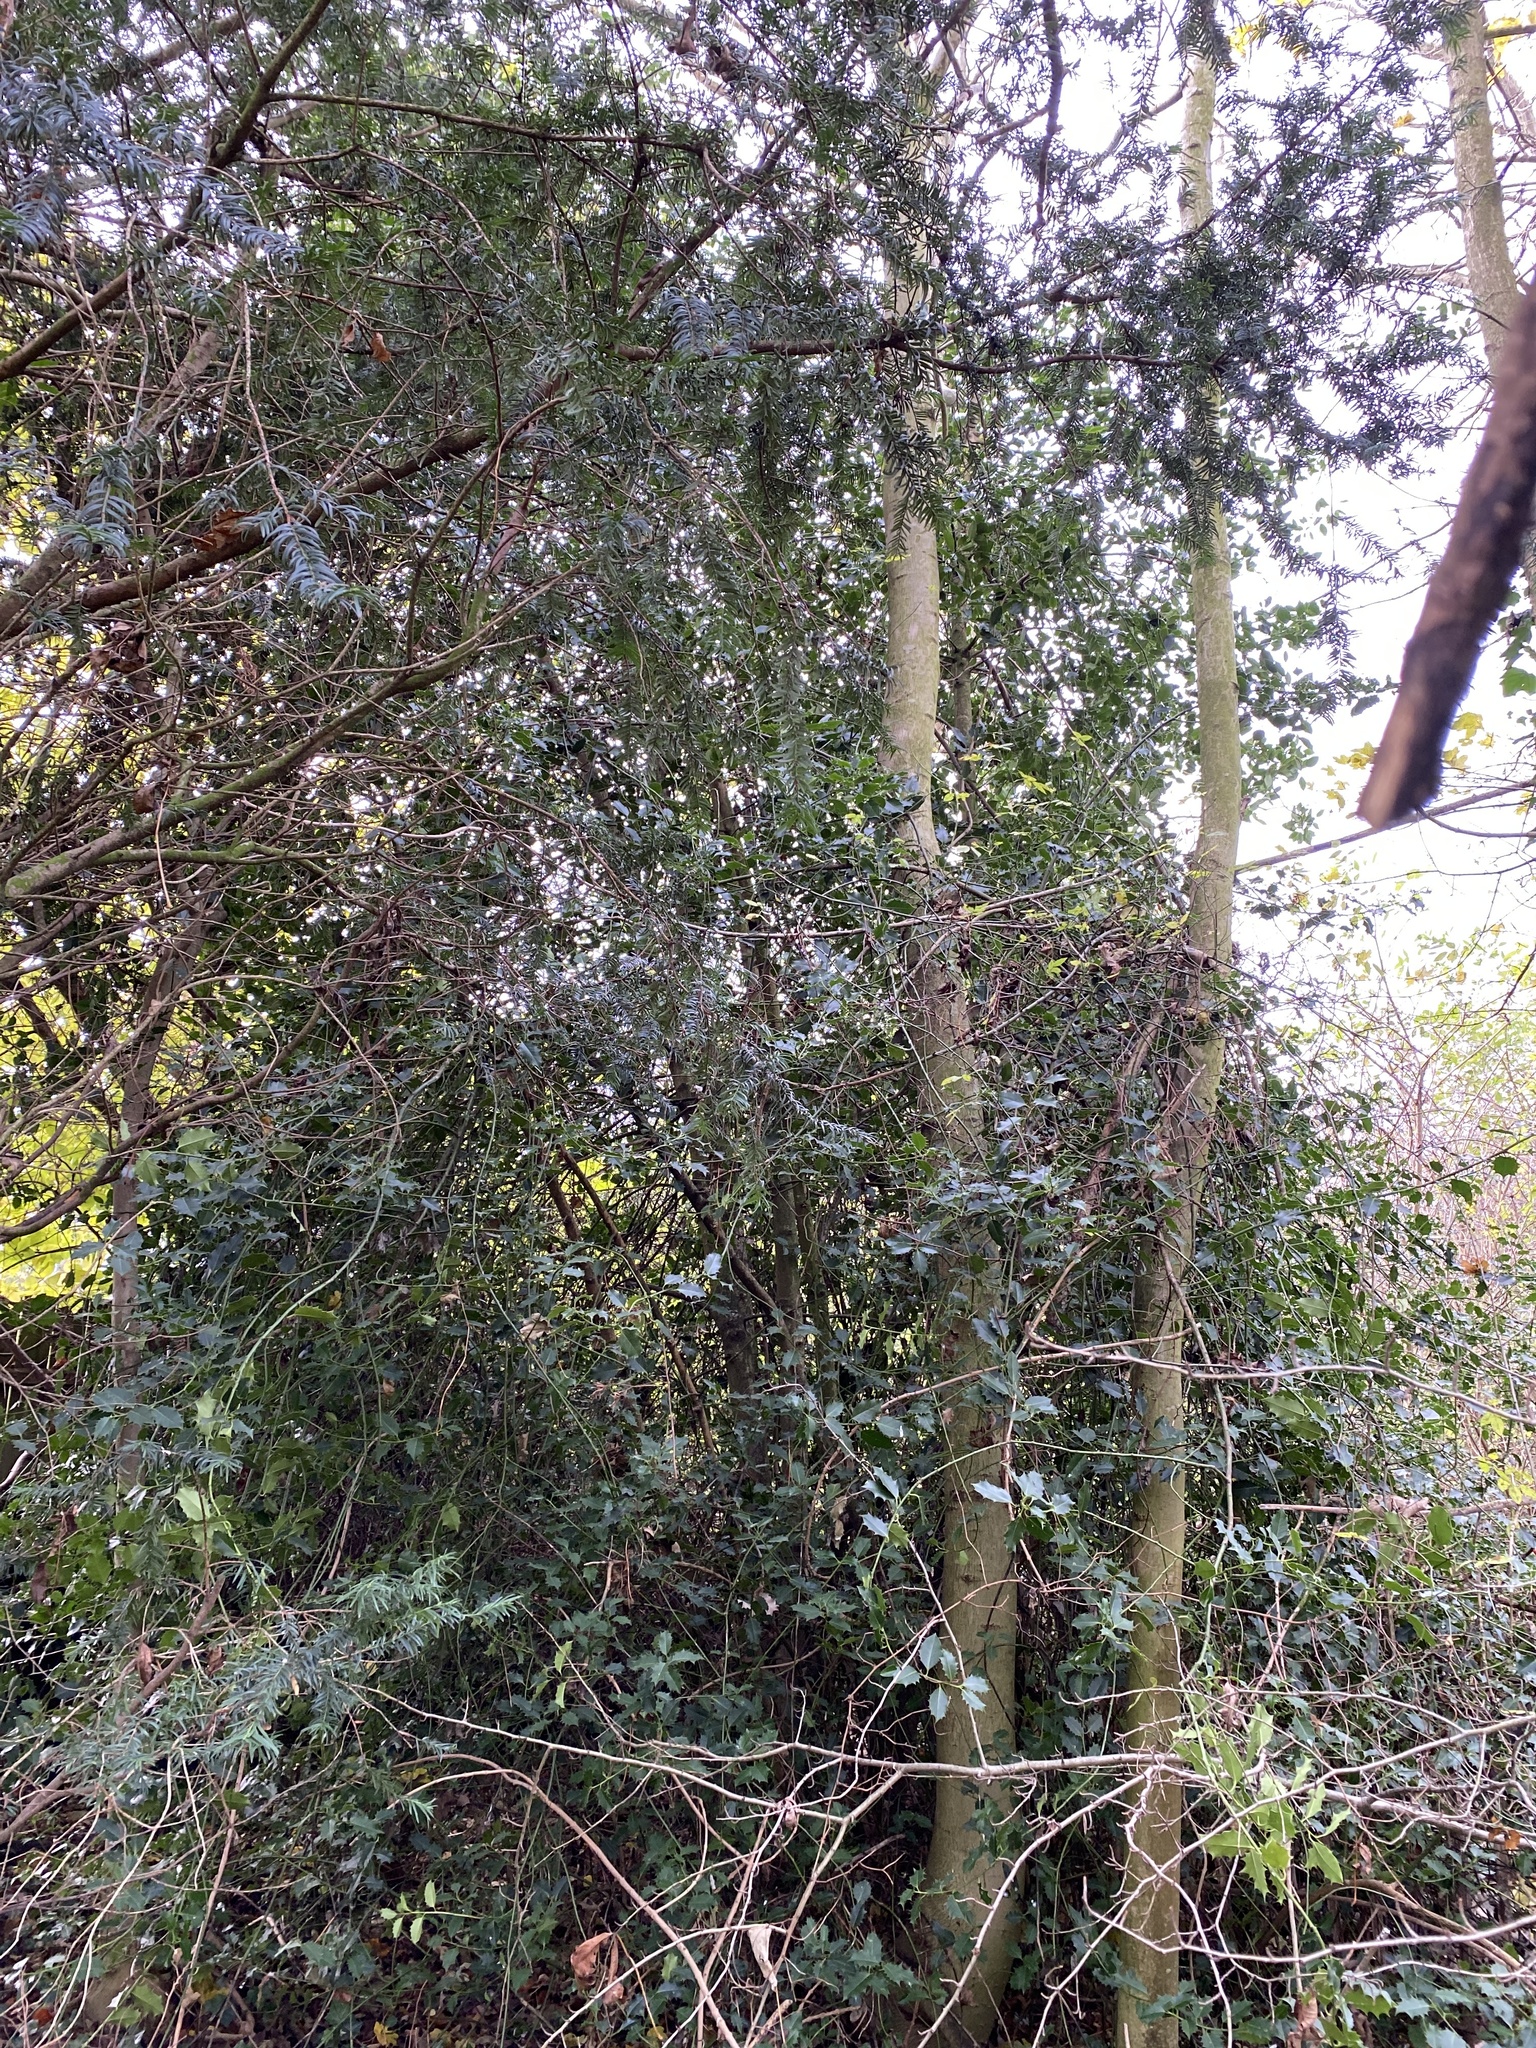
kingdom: Plantae
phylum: Tracheophyta
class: Magnoliopsida
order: Aquifoliales
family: Aquifoliaceae
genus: Ilex
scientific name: Ilex aquifolium
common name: English holly
